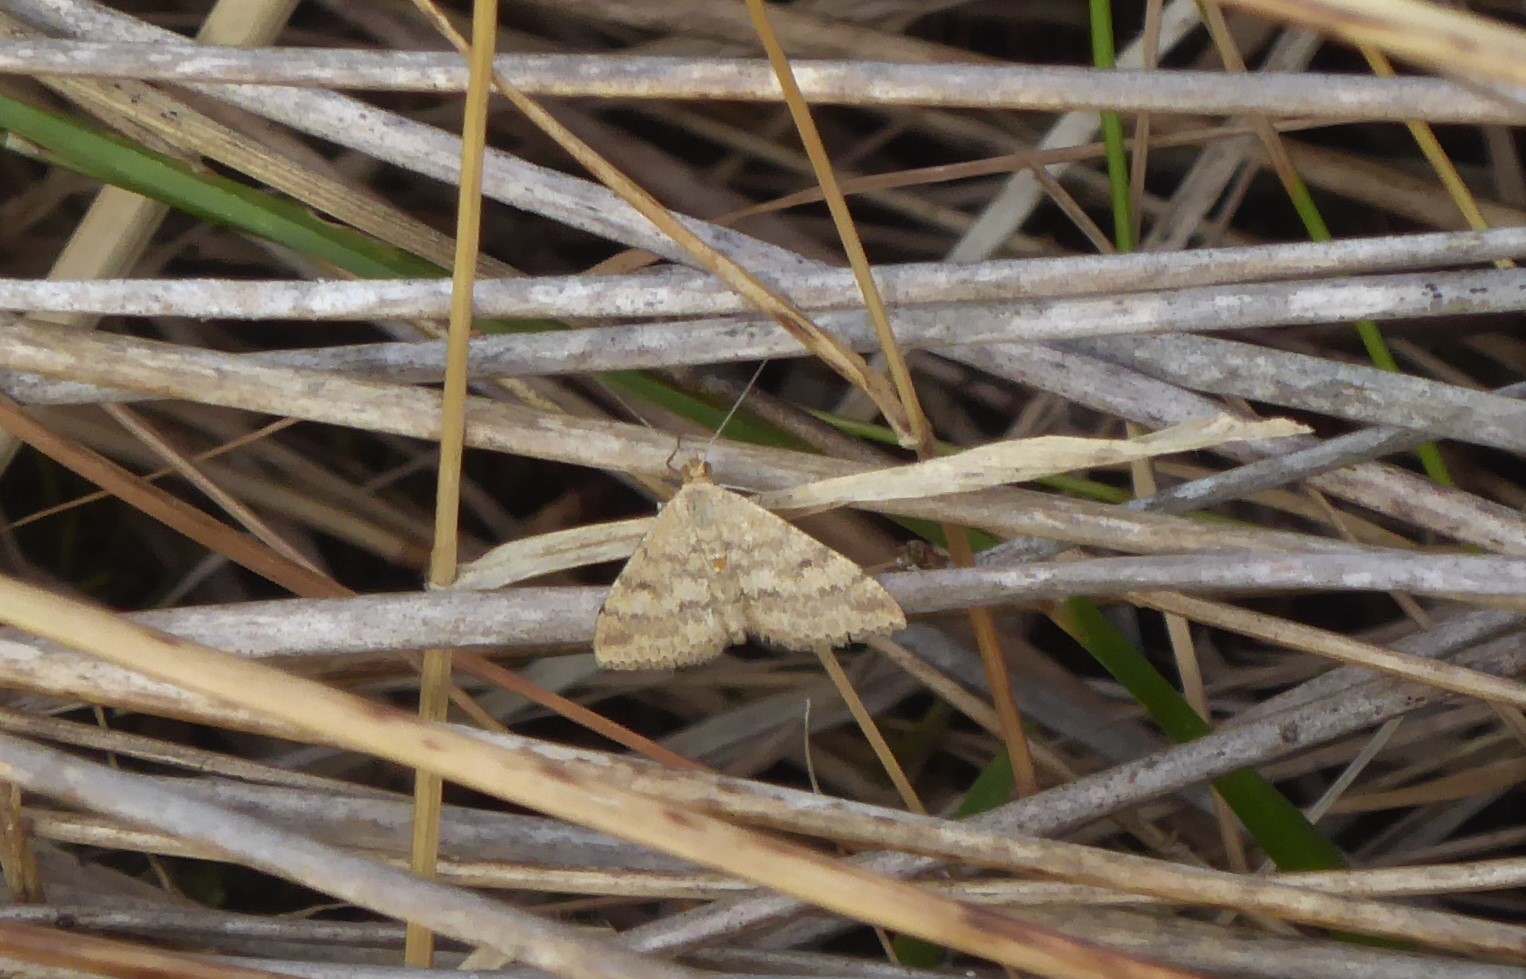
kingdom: Animalia
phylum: Arthropoda
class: Insecta
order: Lepidoptera
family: Geometridae
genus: Scopula
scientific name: Scopula rubraria
